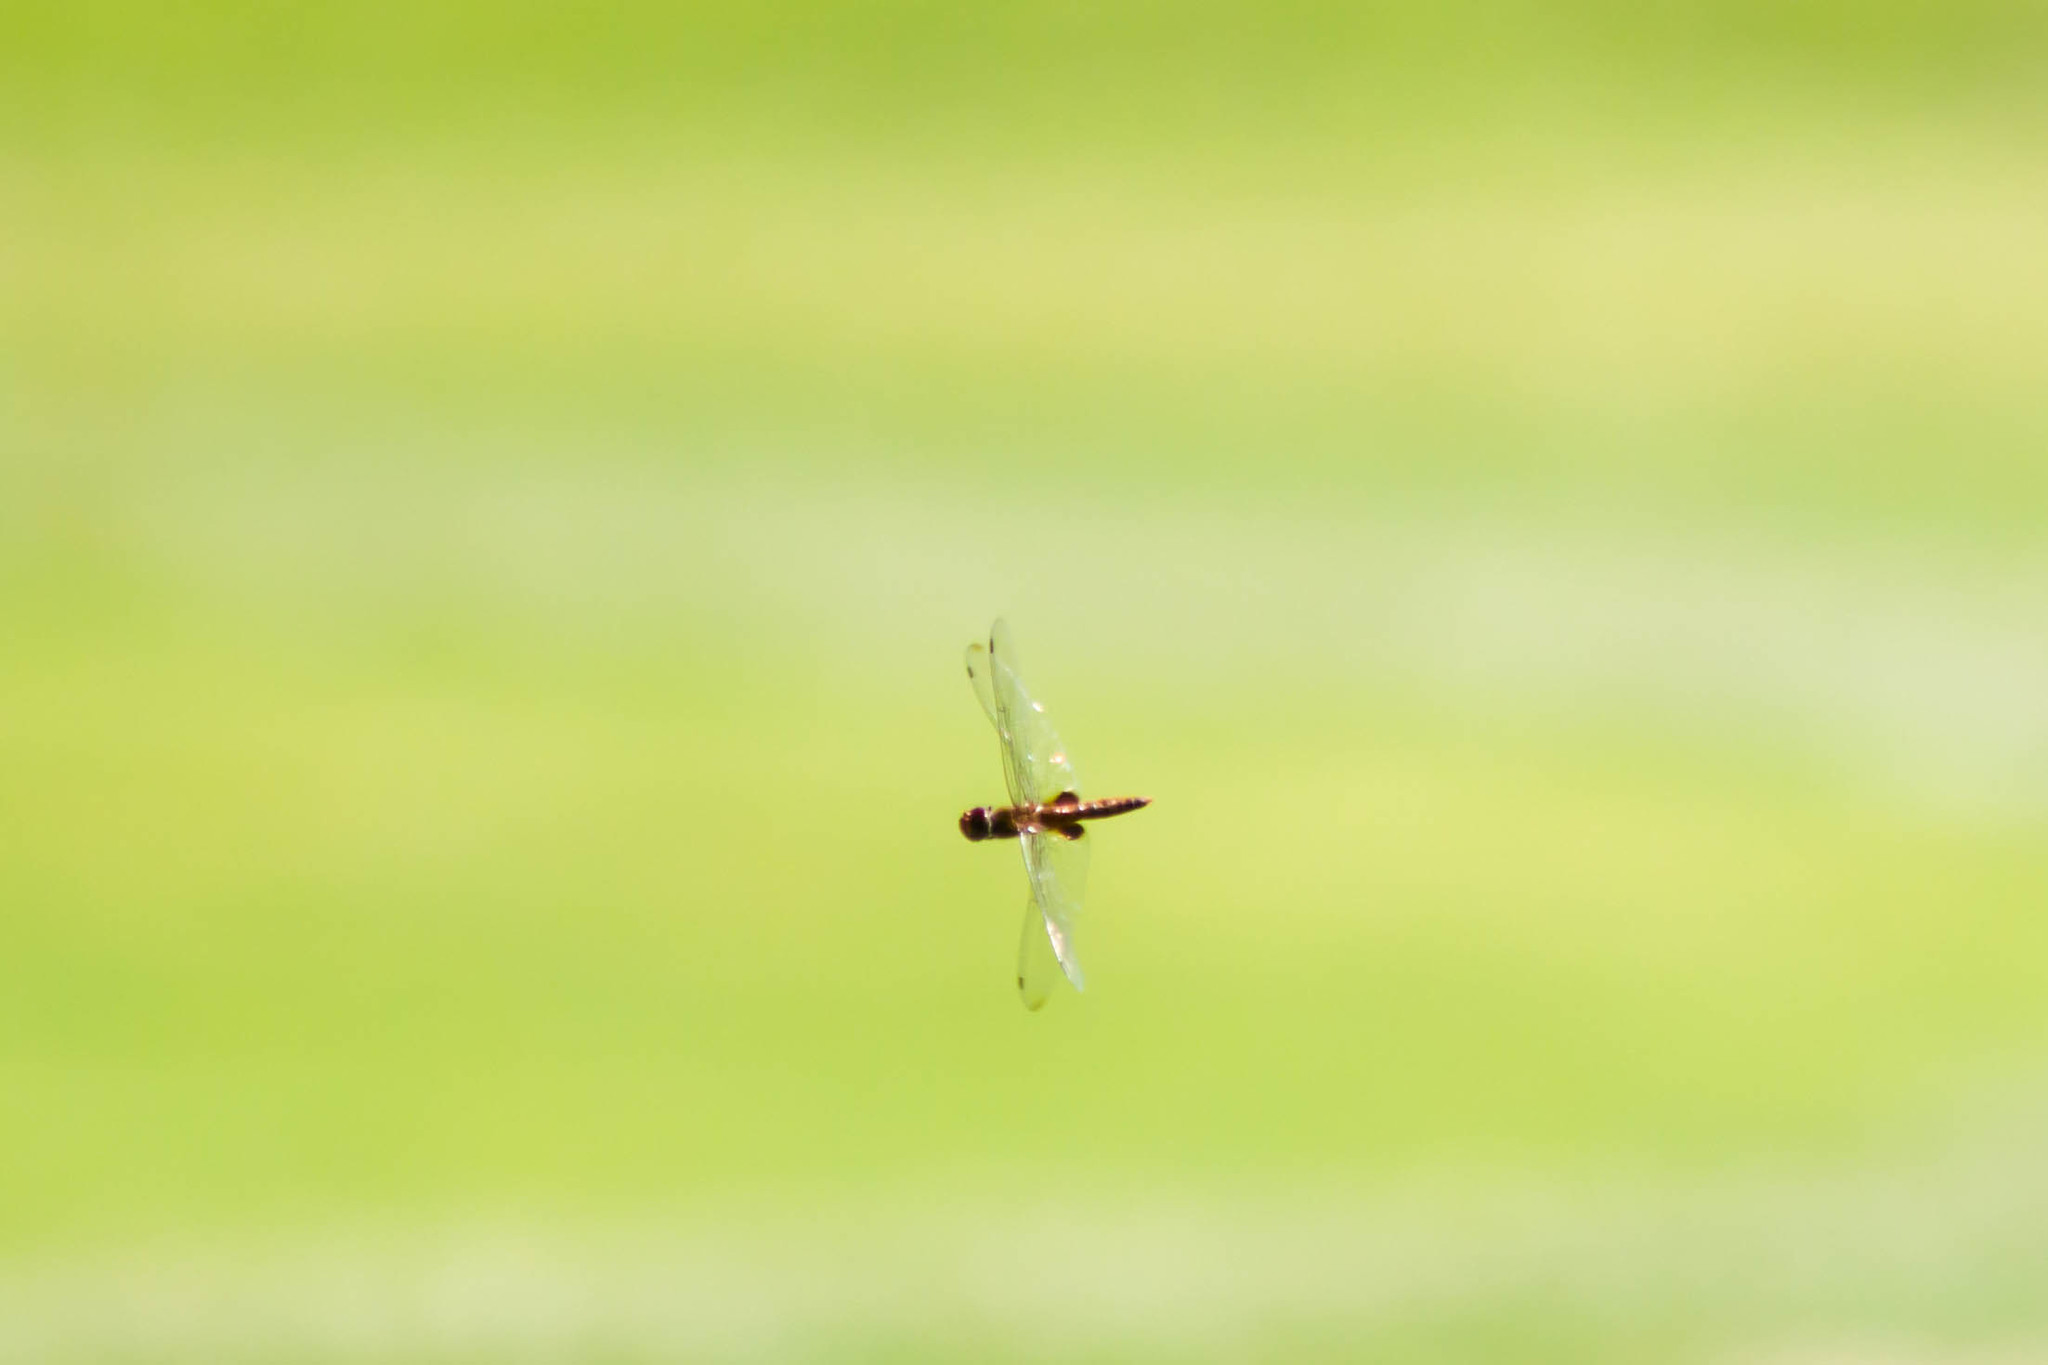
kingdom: Animalia
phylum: Arthropoda
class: Insecta
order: Odonata
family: Libellulidae
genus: Pantala
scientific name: Pantala hymenaea
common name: Spot-winged glider
